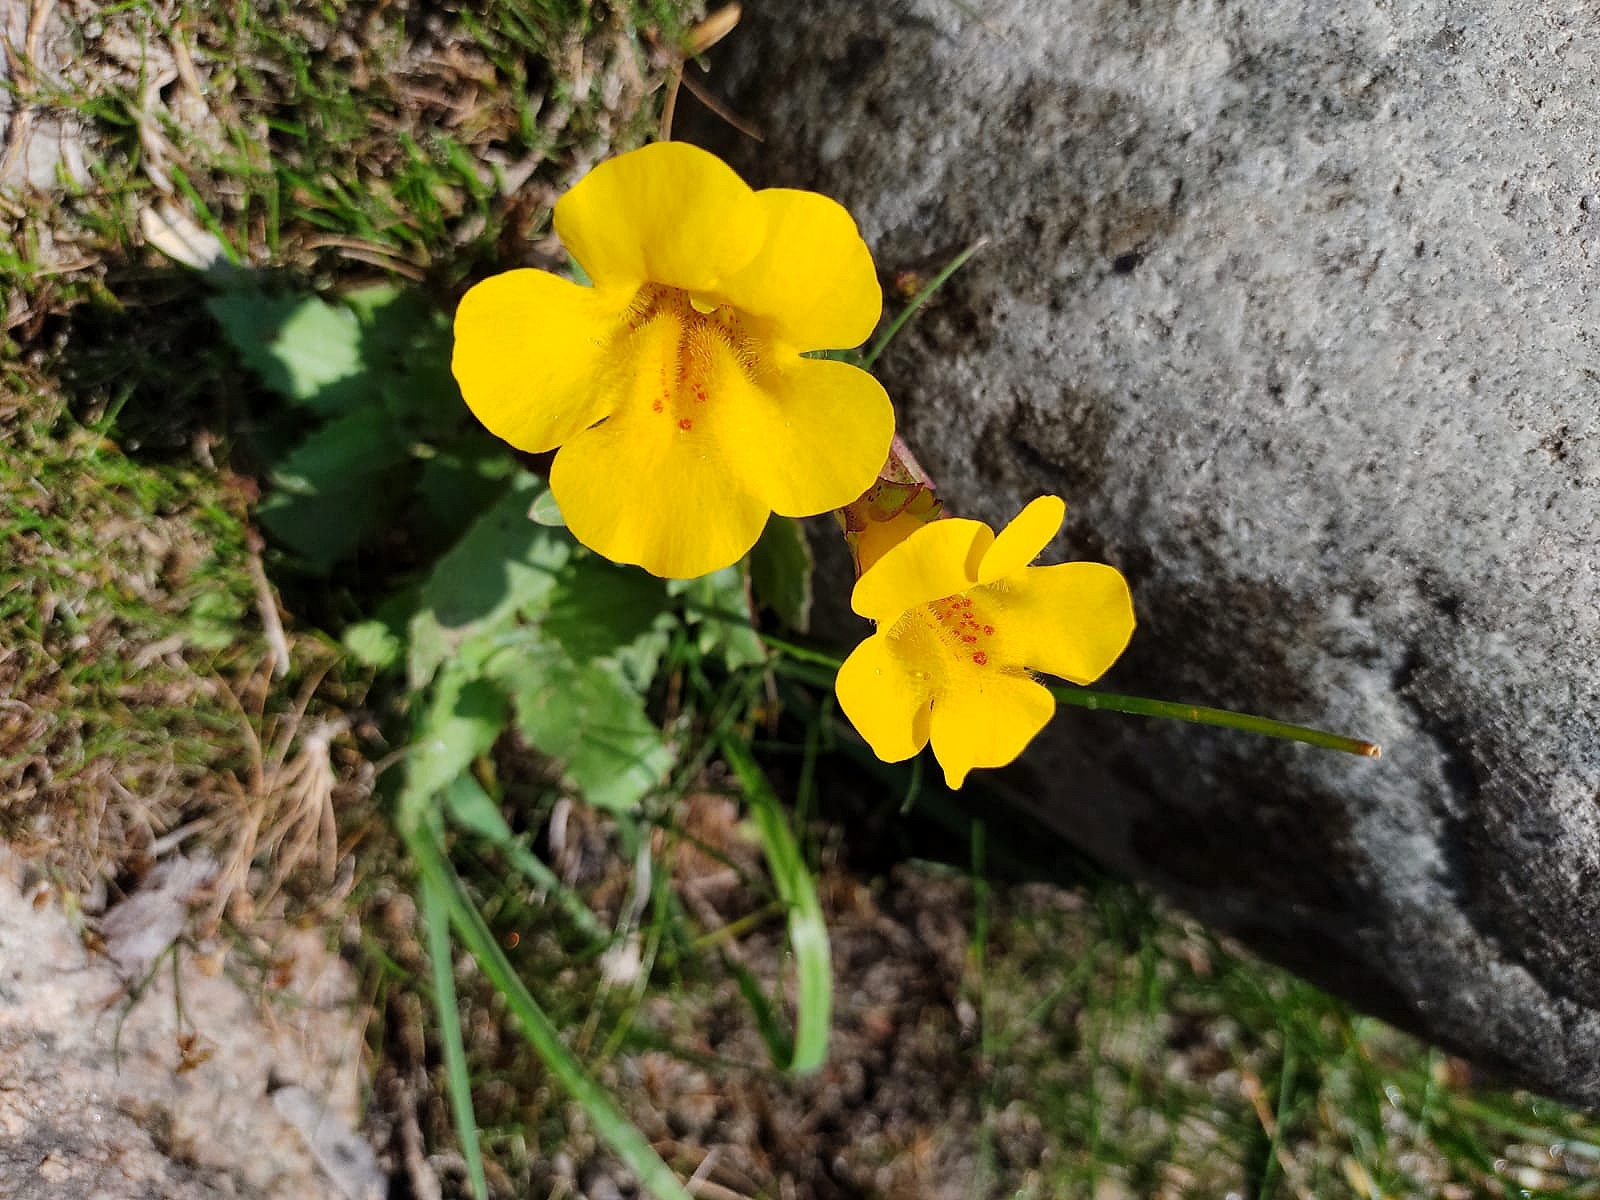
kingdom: Plantae
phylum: Tracheophyta
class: Magnoliopsida
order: Lamiales
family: Phrymaceae
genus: Erythranthe
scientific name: Erythranthe lutea
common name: Yellow monkey-flower
